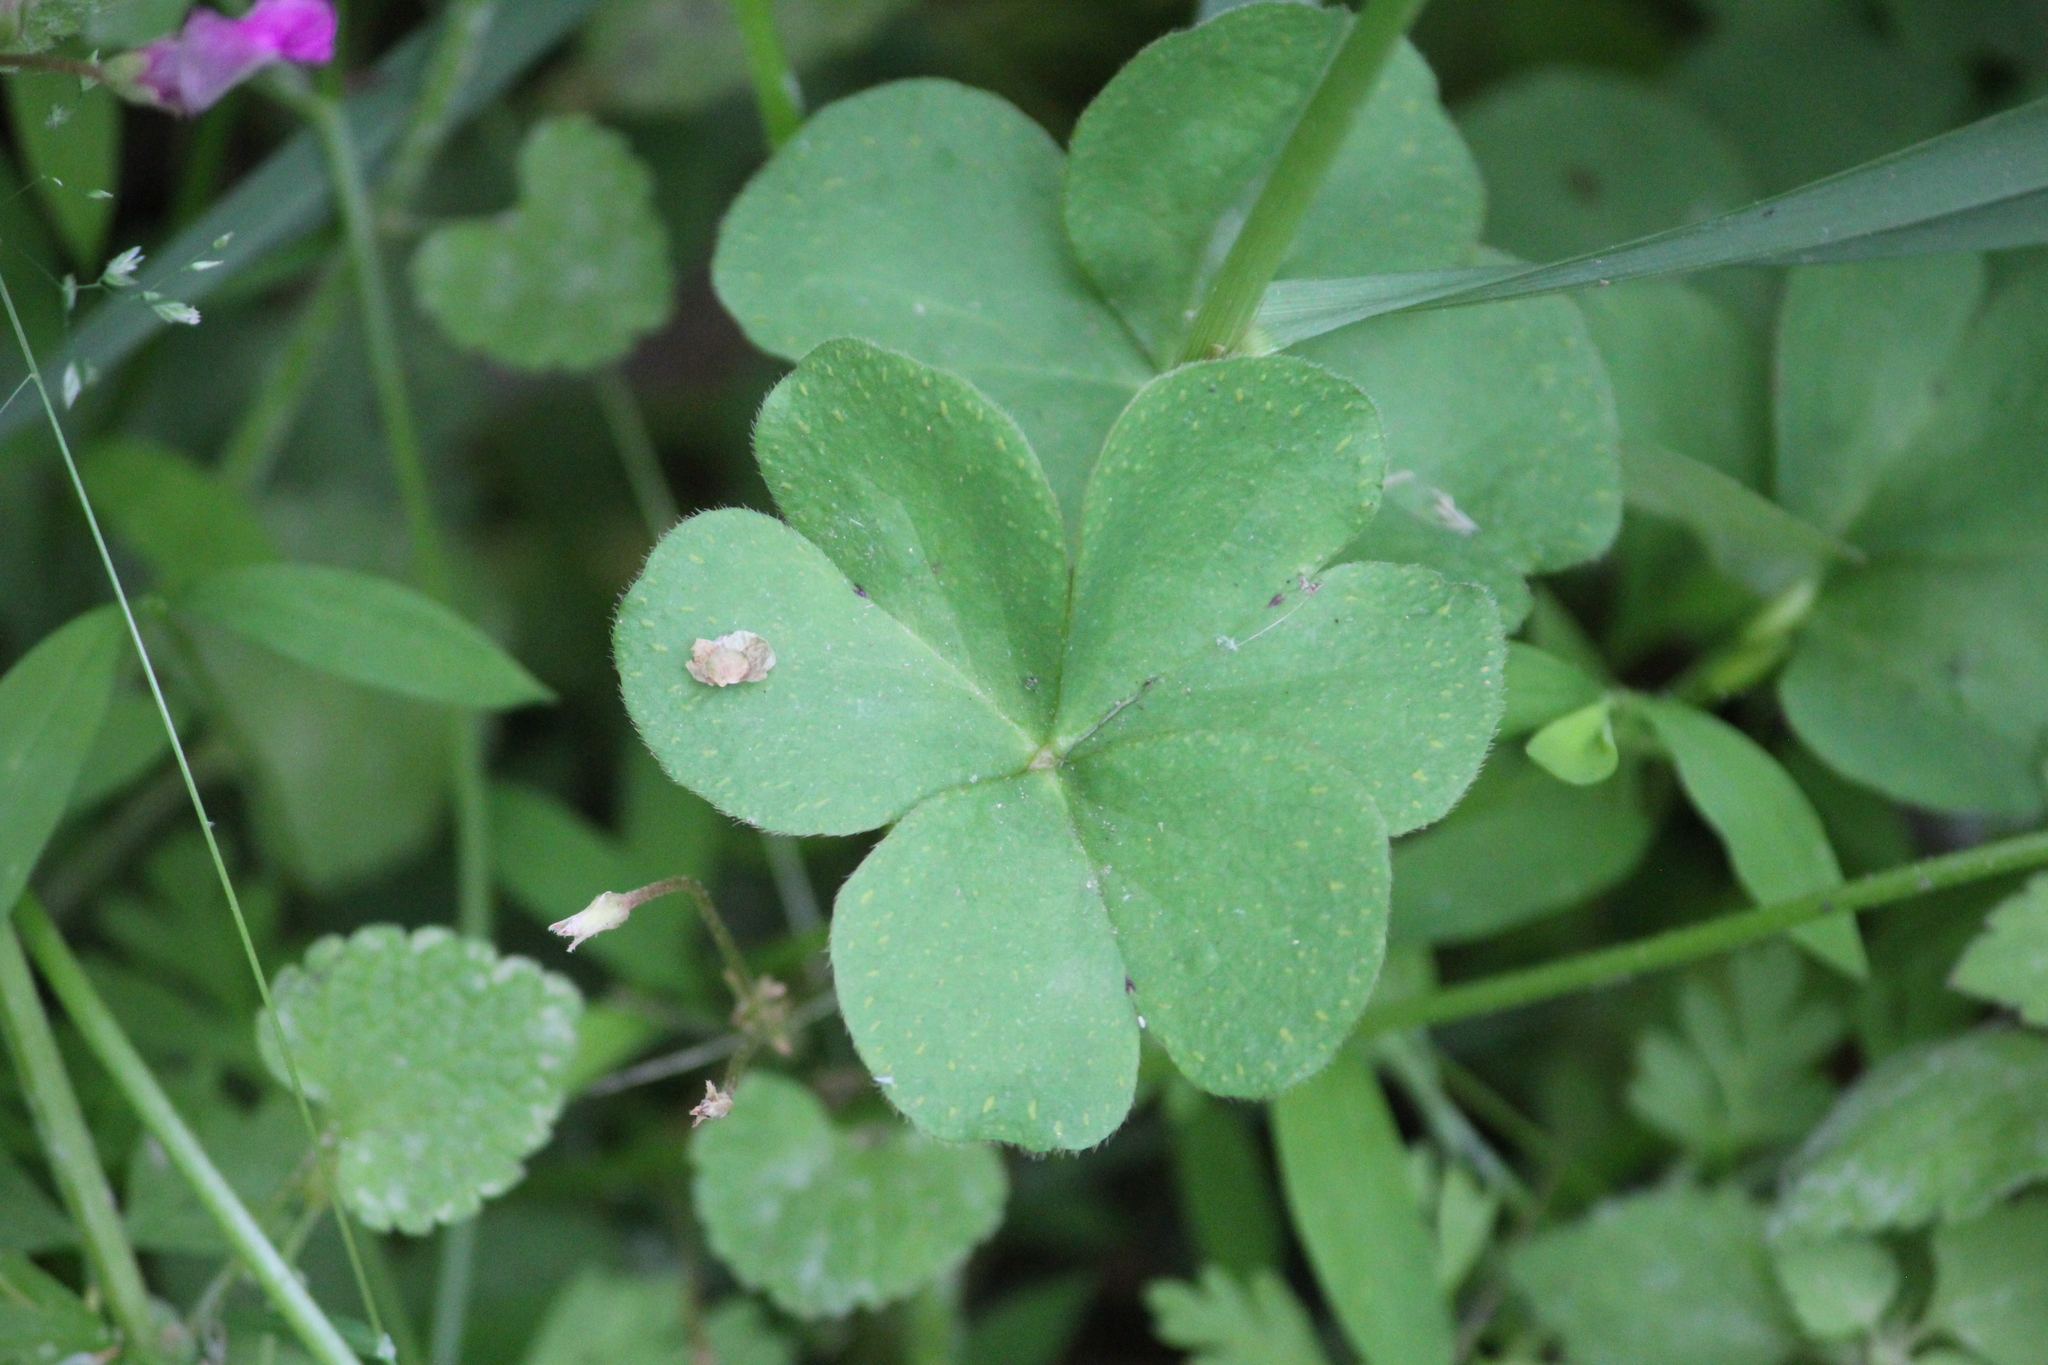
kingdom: Plantae
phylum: Tracheophyta
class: Magnoliopsida
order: Oxalidales
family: Oxalidaceae
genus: Oxalis
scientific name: Oxalis articulata
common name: Pink-sorrel
